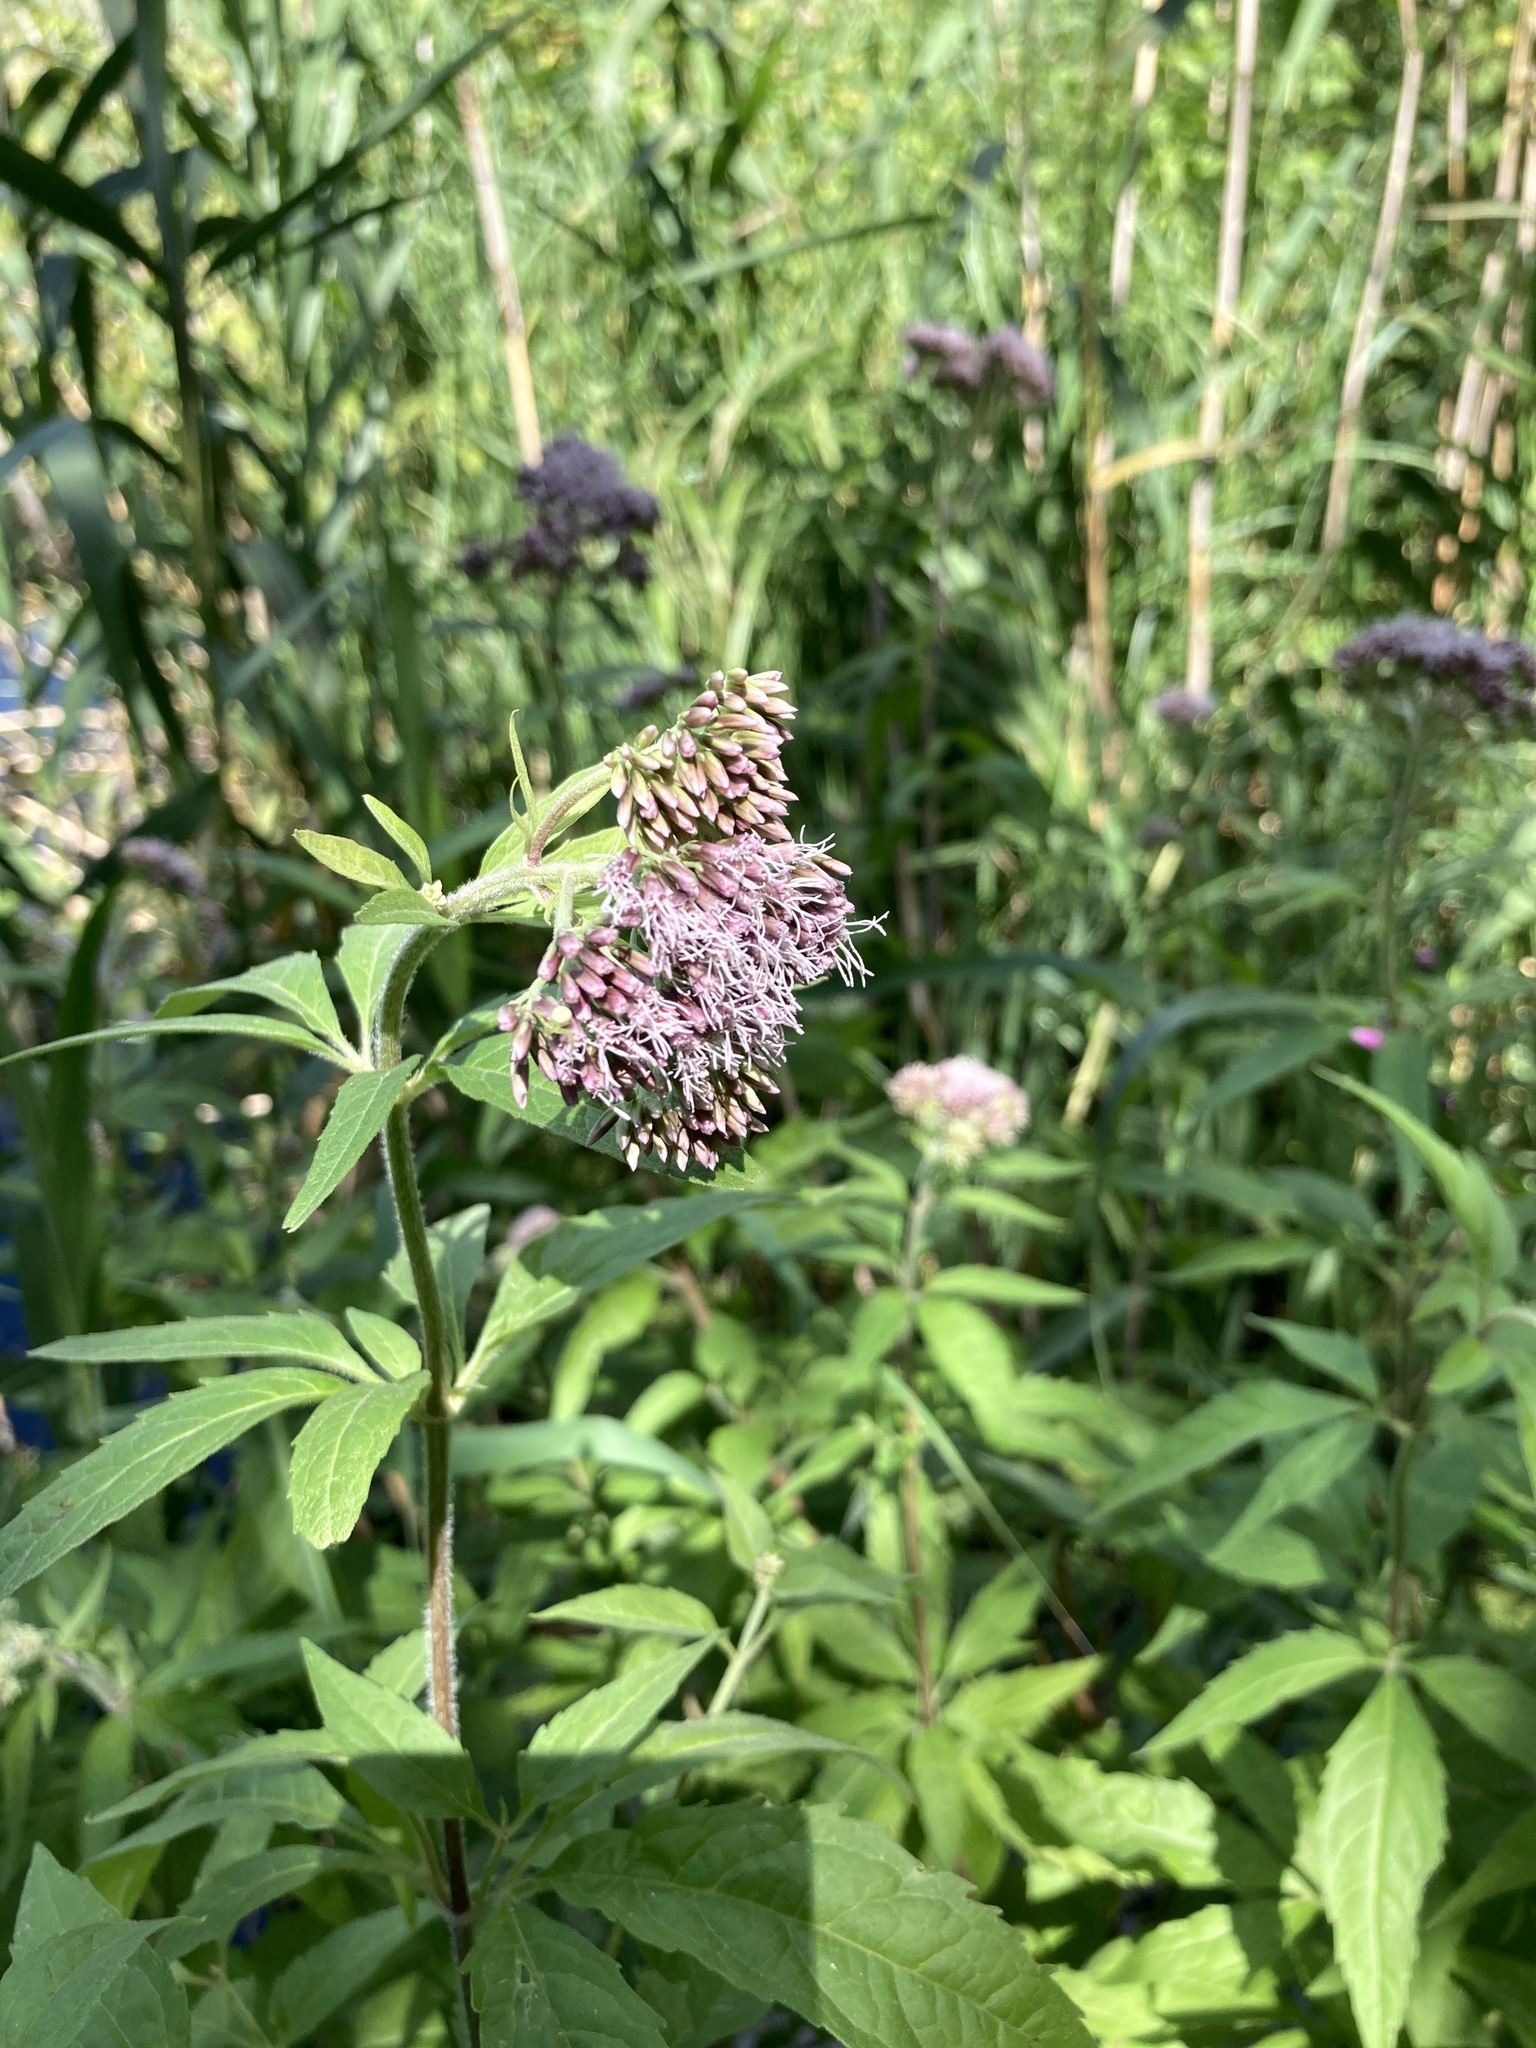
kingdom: Plantae
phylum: Tracheophyta
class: Magnoliopsida
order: Asterales
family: Asteraceae
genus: Eupatorium
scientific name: Eupatorium cannabinum
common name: Hemp-agrimony
